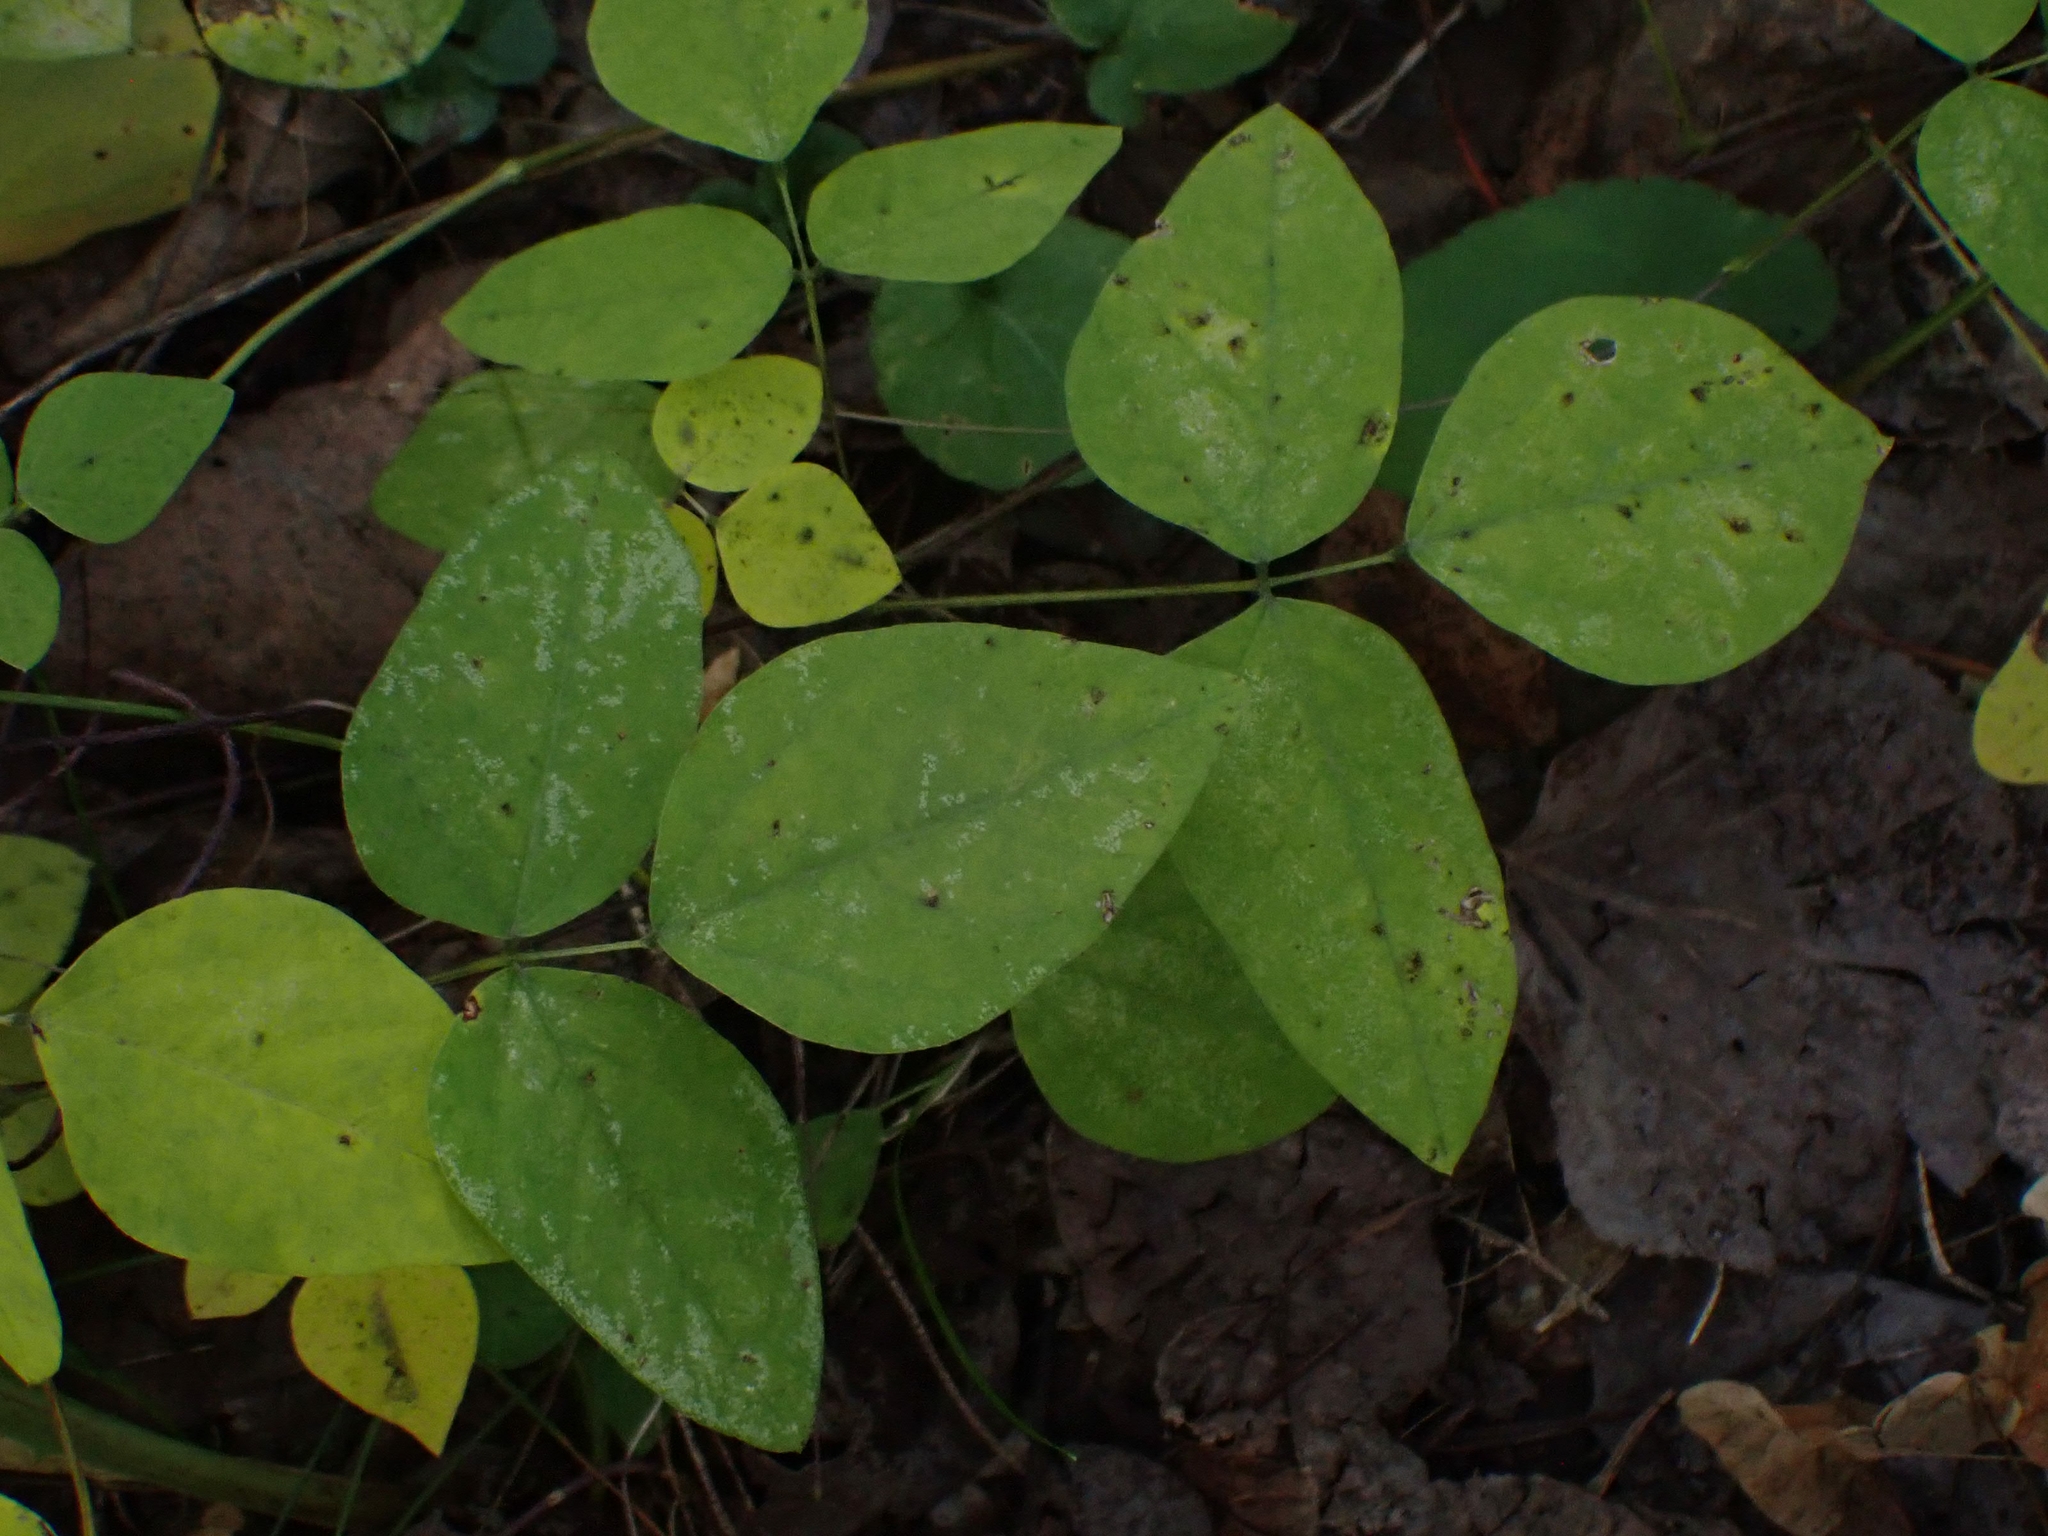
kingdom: Plantae
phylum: Tracheophyta
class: Magnoliopsida
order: Fabales
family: Fabaceae
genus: Amphicarpaea
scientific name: Amphicarpaea bracteata
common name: American hog peanut
